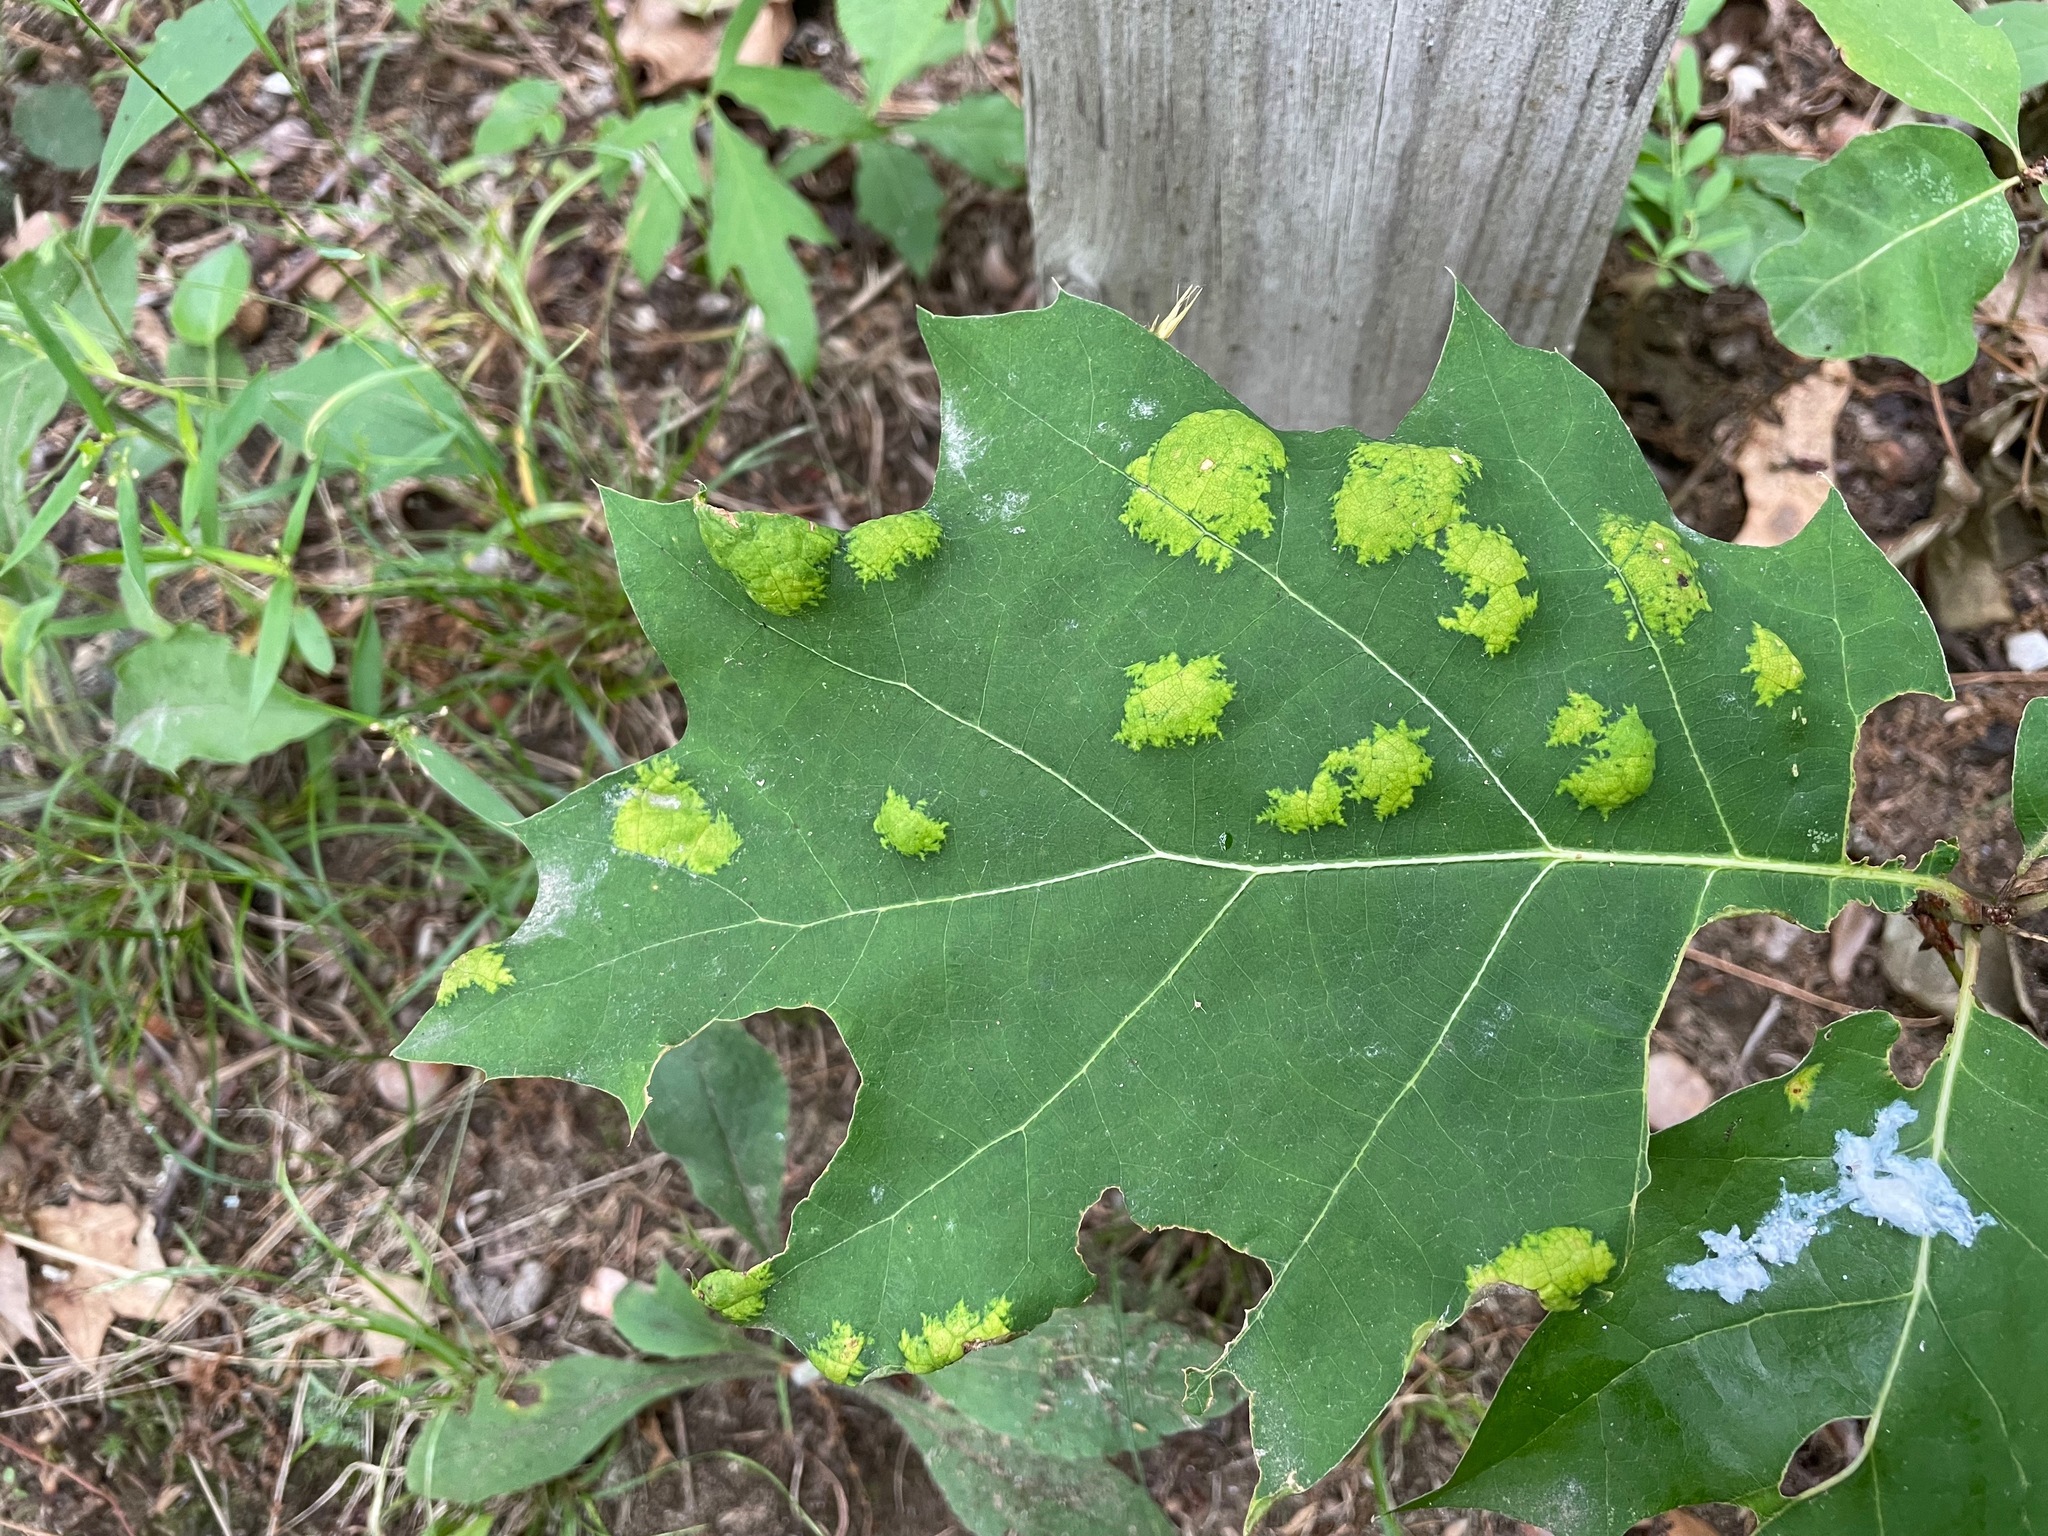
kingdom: Fungi
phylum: Ascomycota
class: Taphrinomycetes
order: Taphrinales
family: Taphrinaceae
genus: Taphrina
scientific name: Taphrina caerulescens
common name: Oak leaf blister
